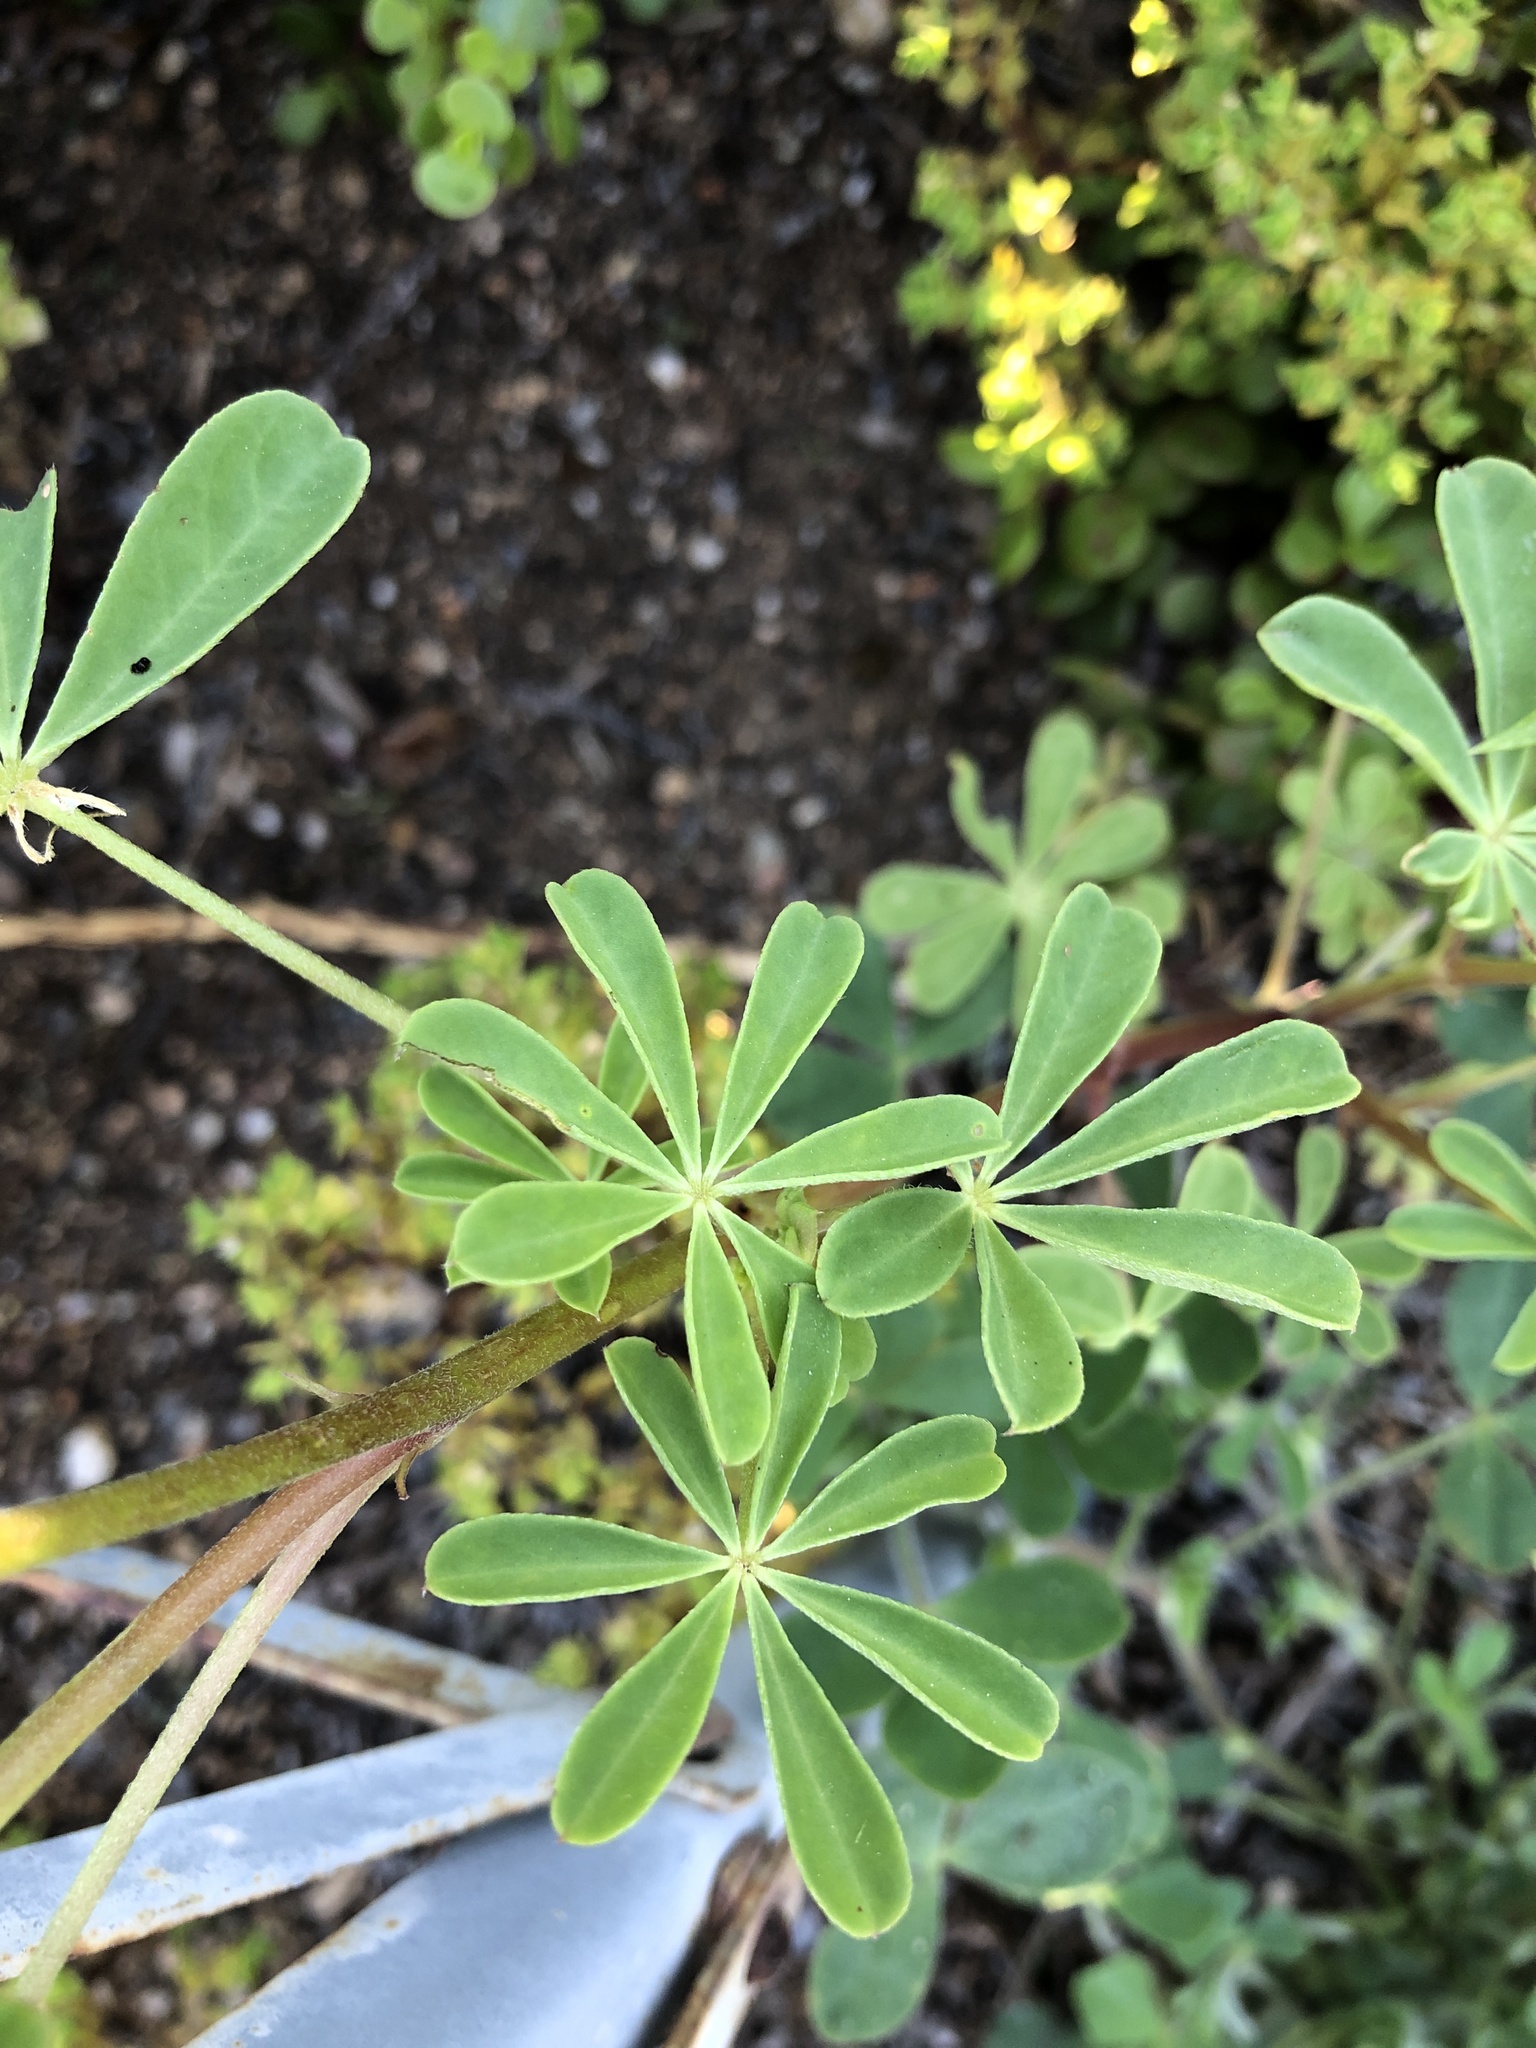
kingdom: Plantae
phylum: Tracheophyta
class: Magnoliopsida
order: Fabales
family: Fabaceae
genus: Lupinus
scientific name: Lupinus succulentus
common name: Arroyo lupine
